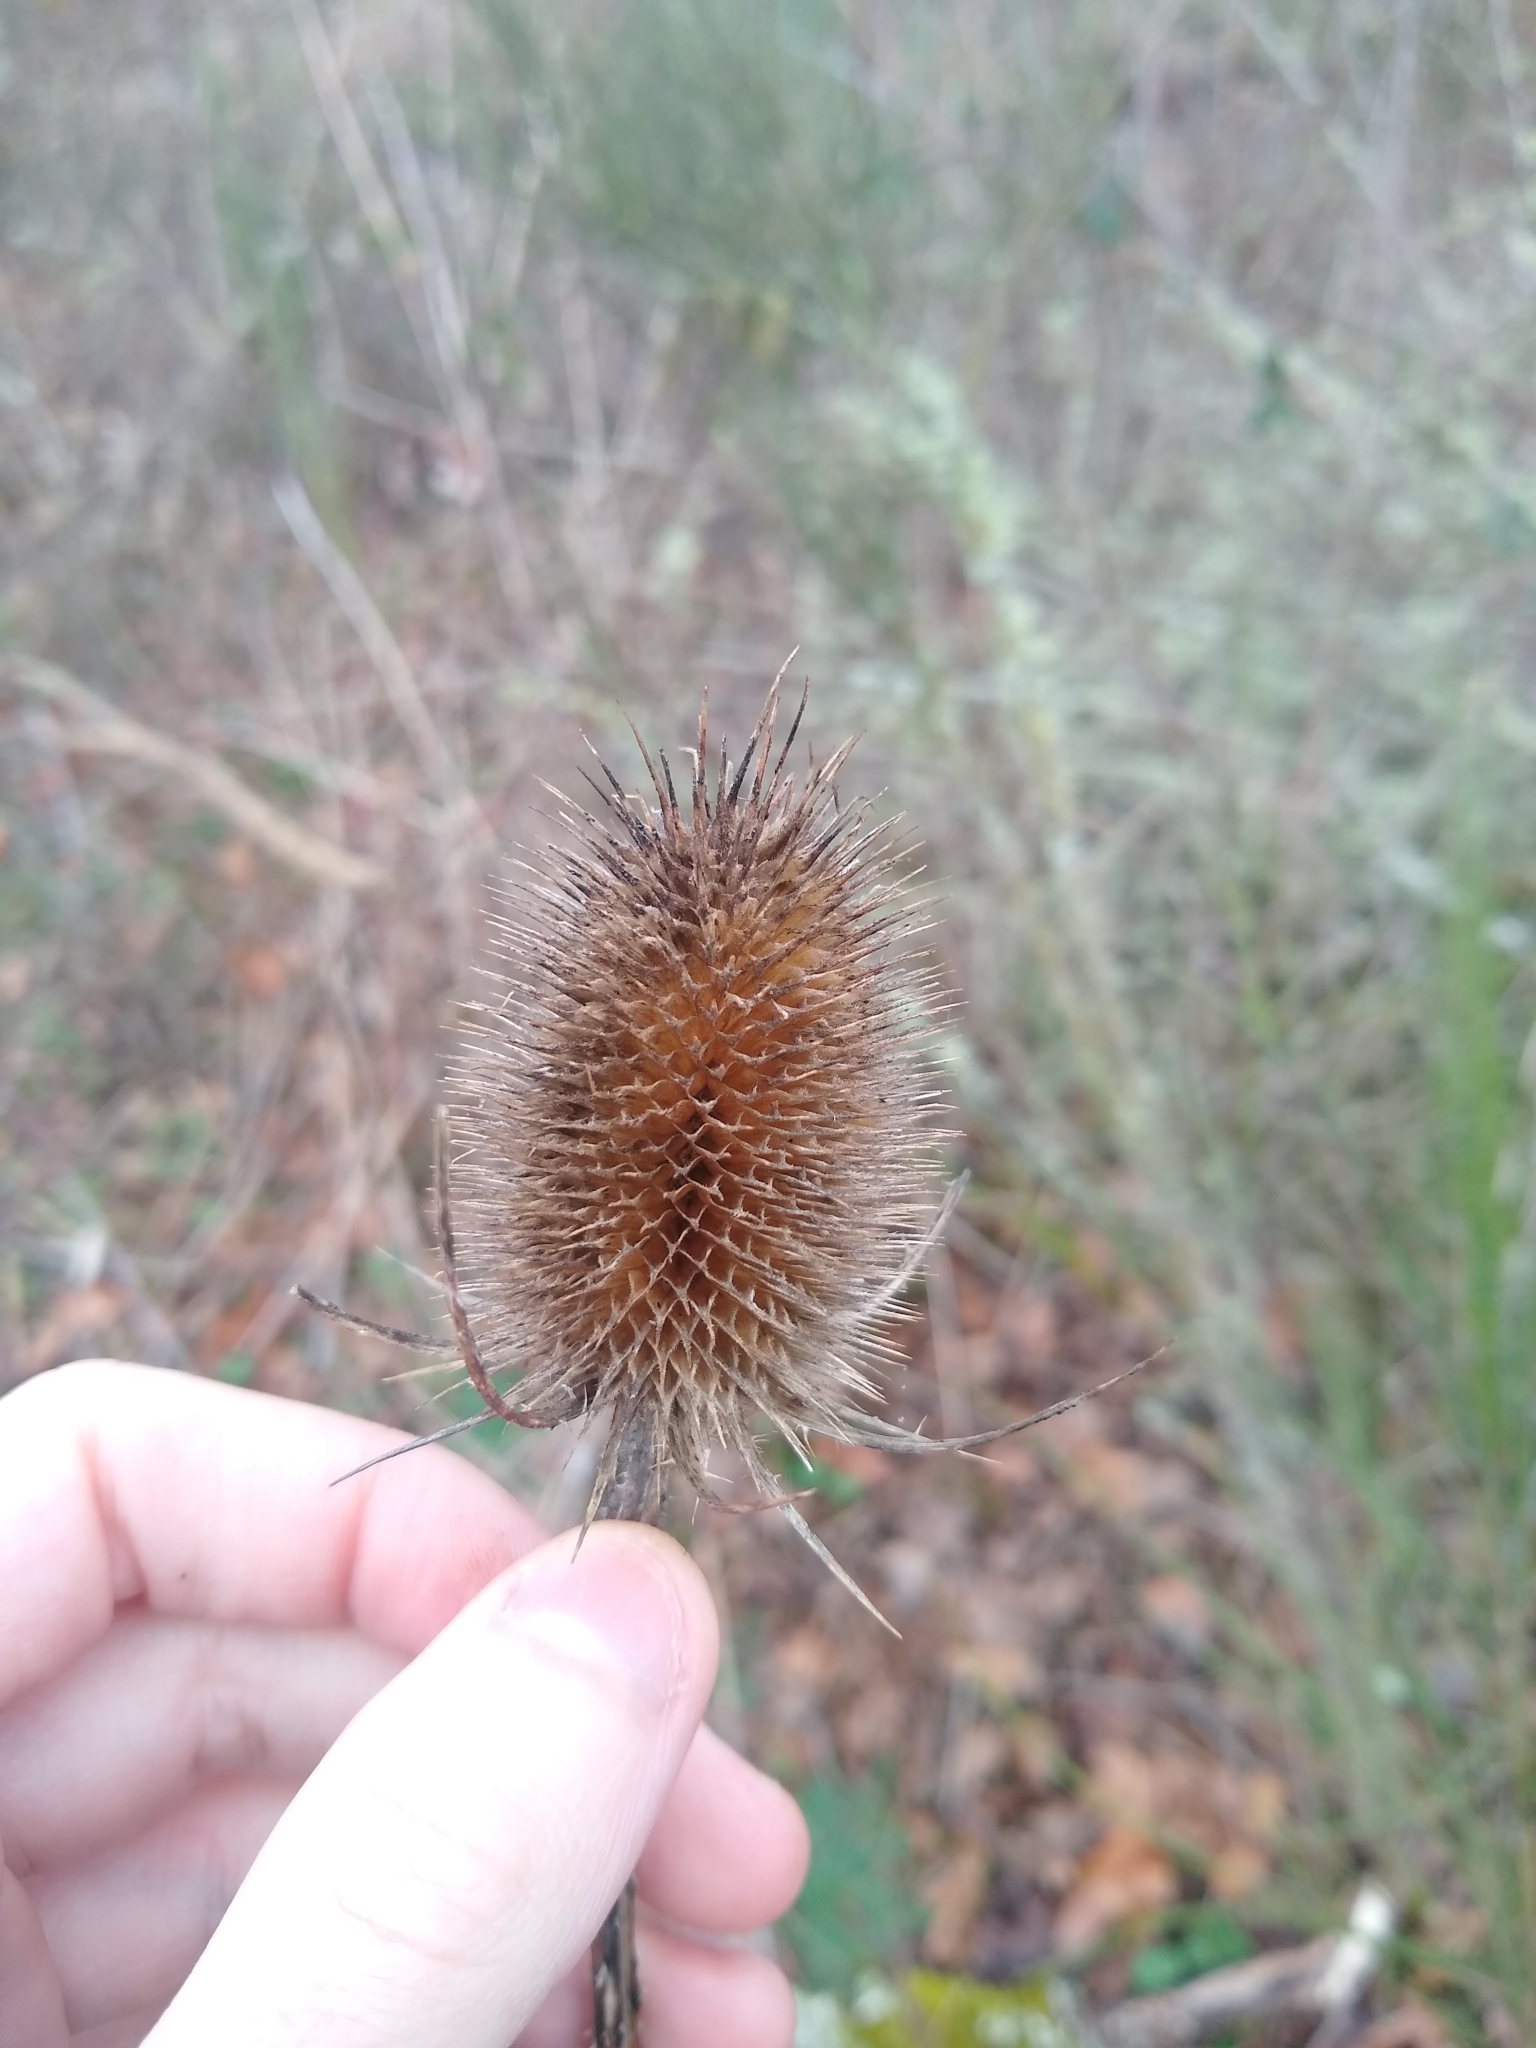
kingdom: Plantae
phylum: Tracheophyta
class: Magnoliopsida
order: Dipsacales
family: Caprifoliaceae
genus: Dipsacus
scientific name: Dipsacus fullonum
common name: Teasel
